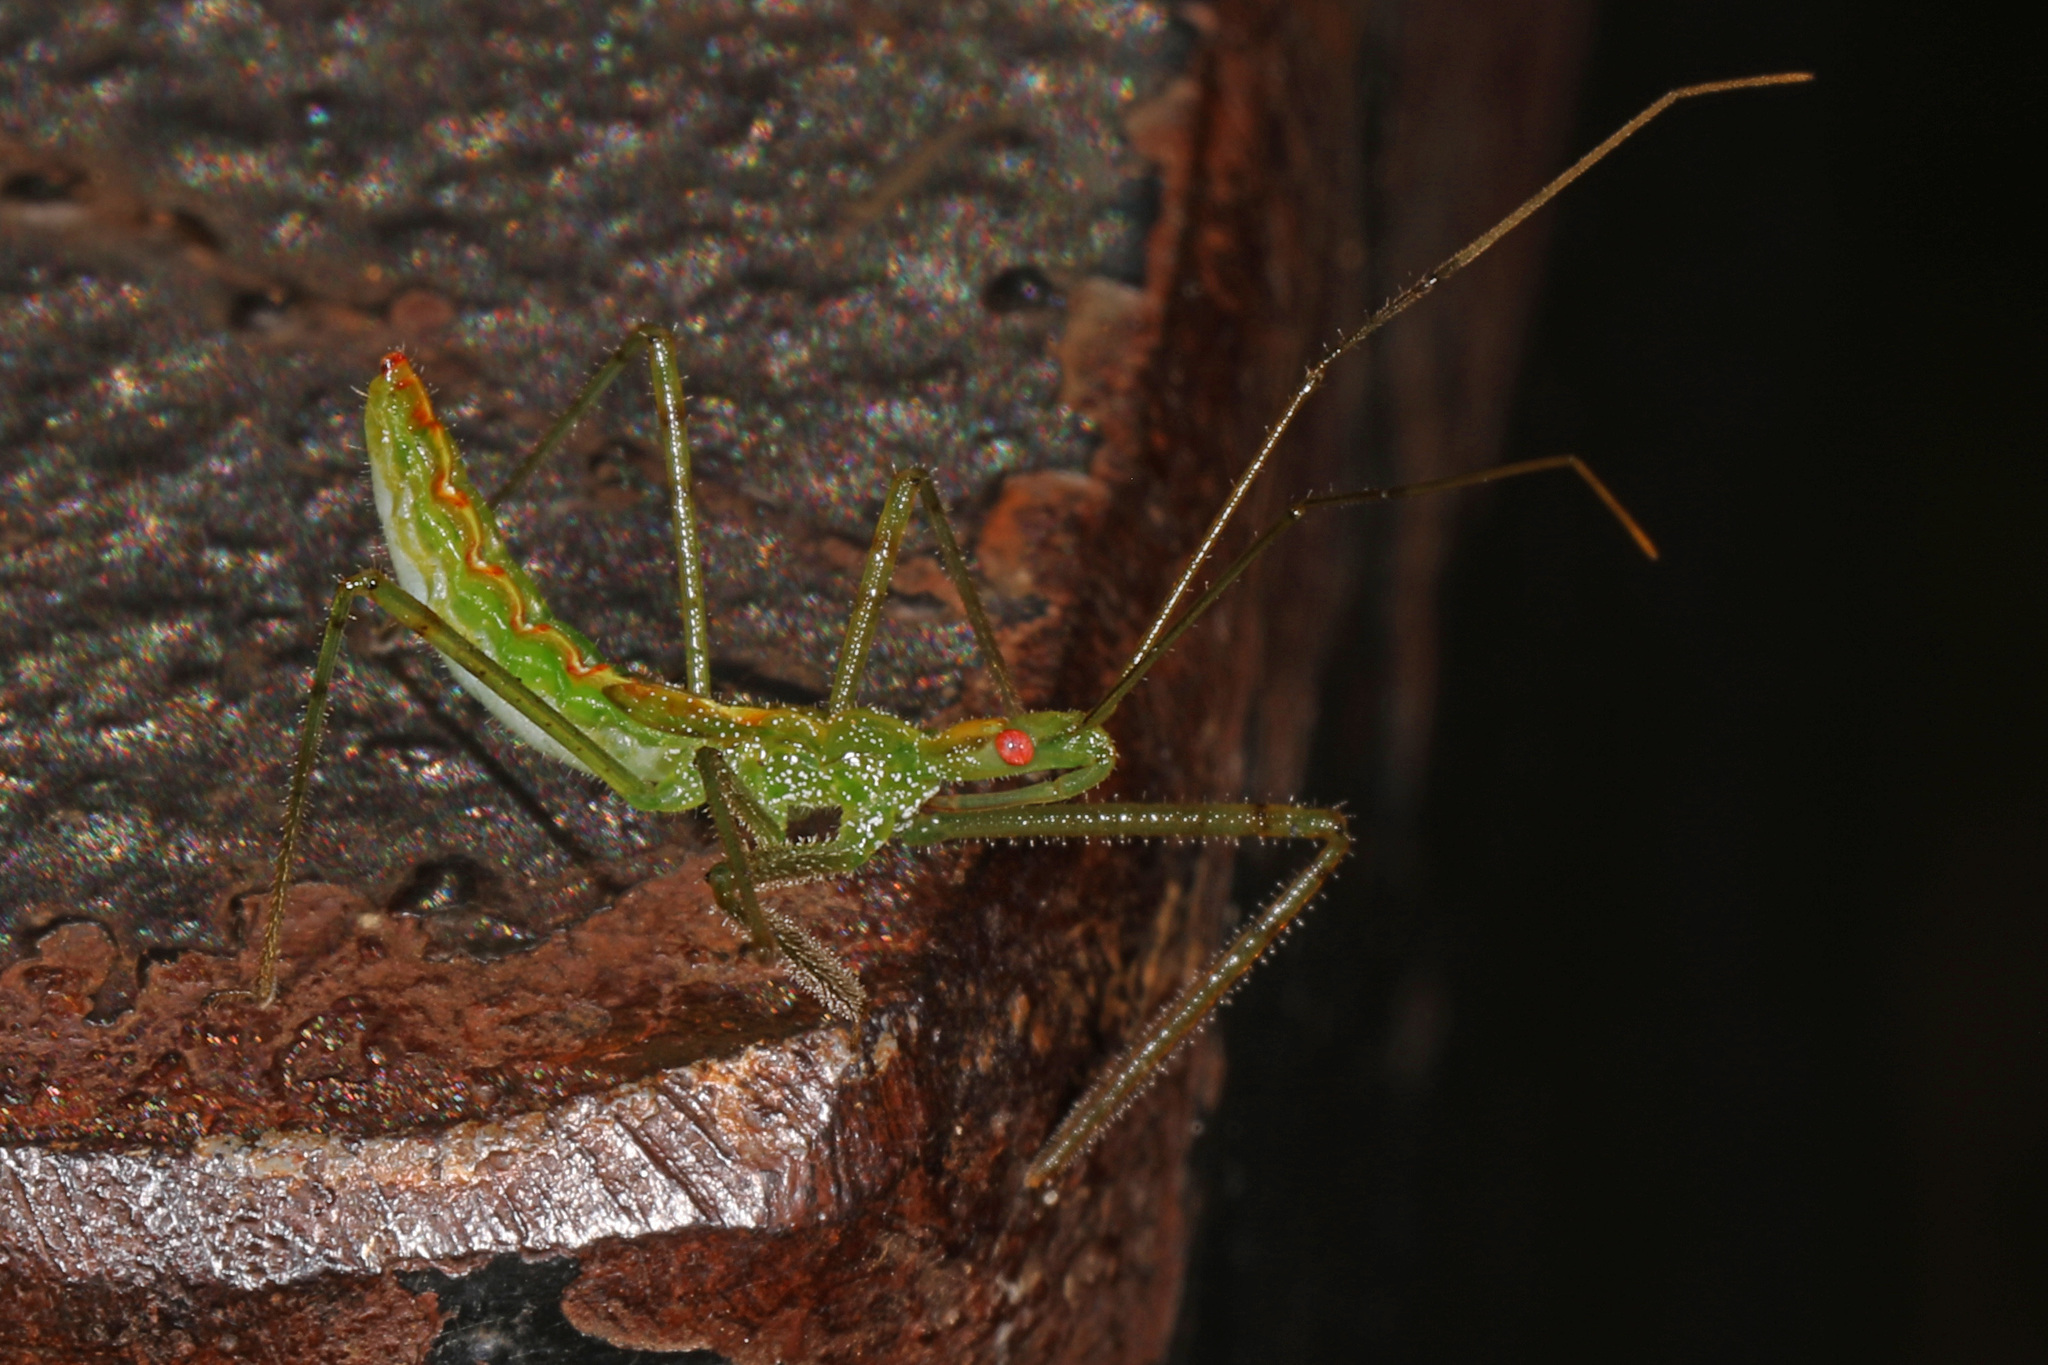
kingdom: Animalia
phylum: Arthropoda
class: Insecta
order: Hemiptera
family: Reduviidae
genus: Zelus
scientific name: Zelus luridus
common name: Pale green assassin bug
